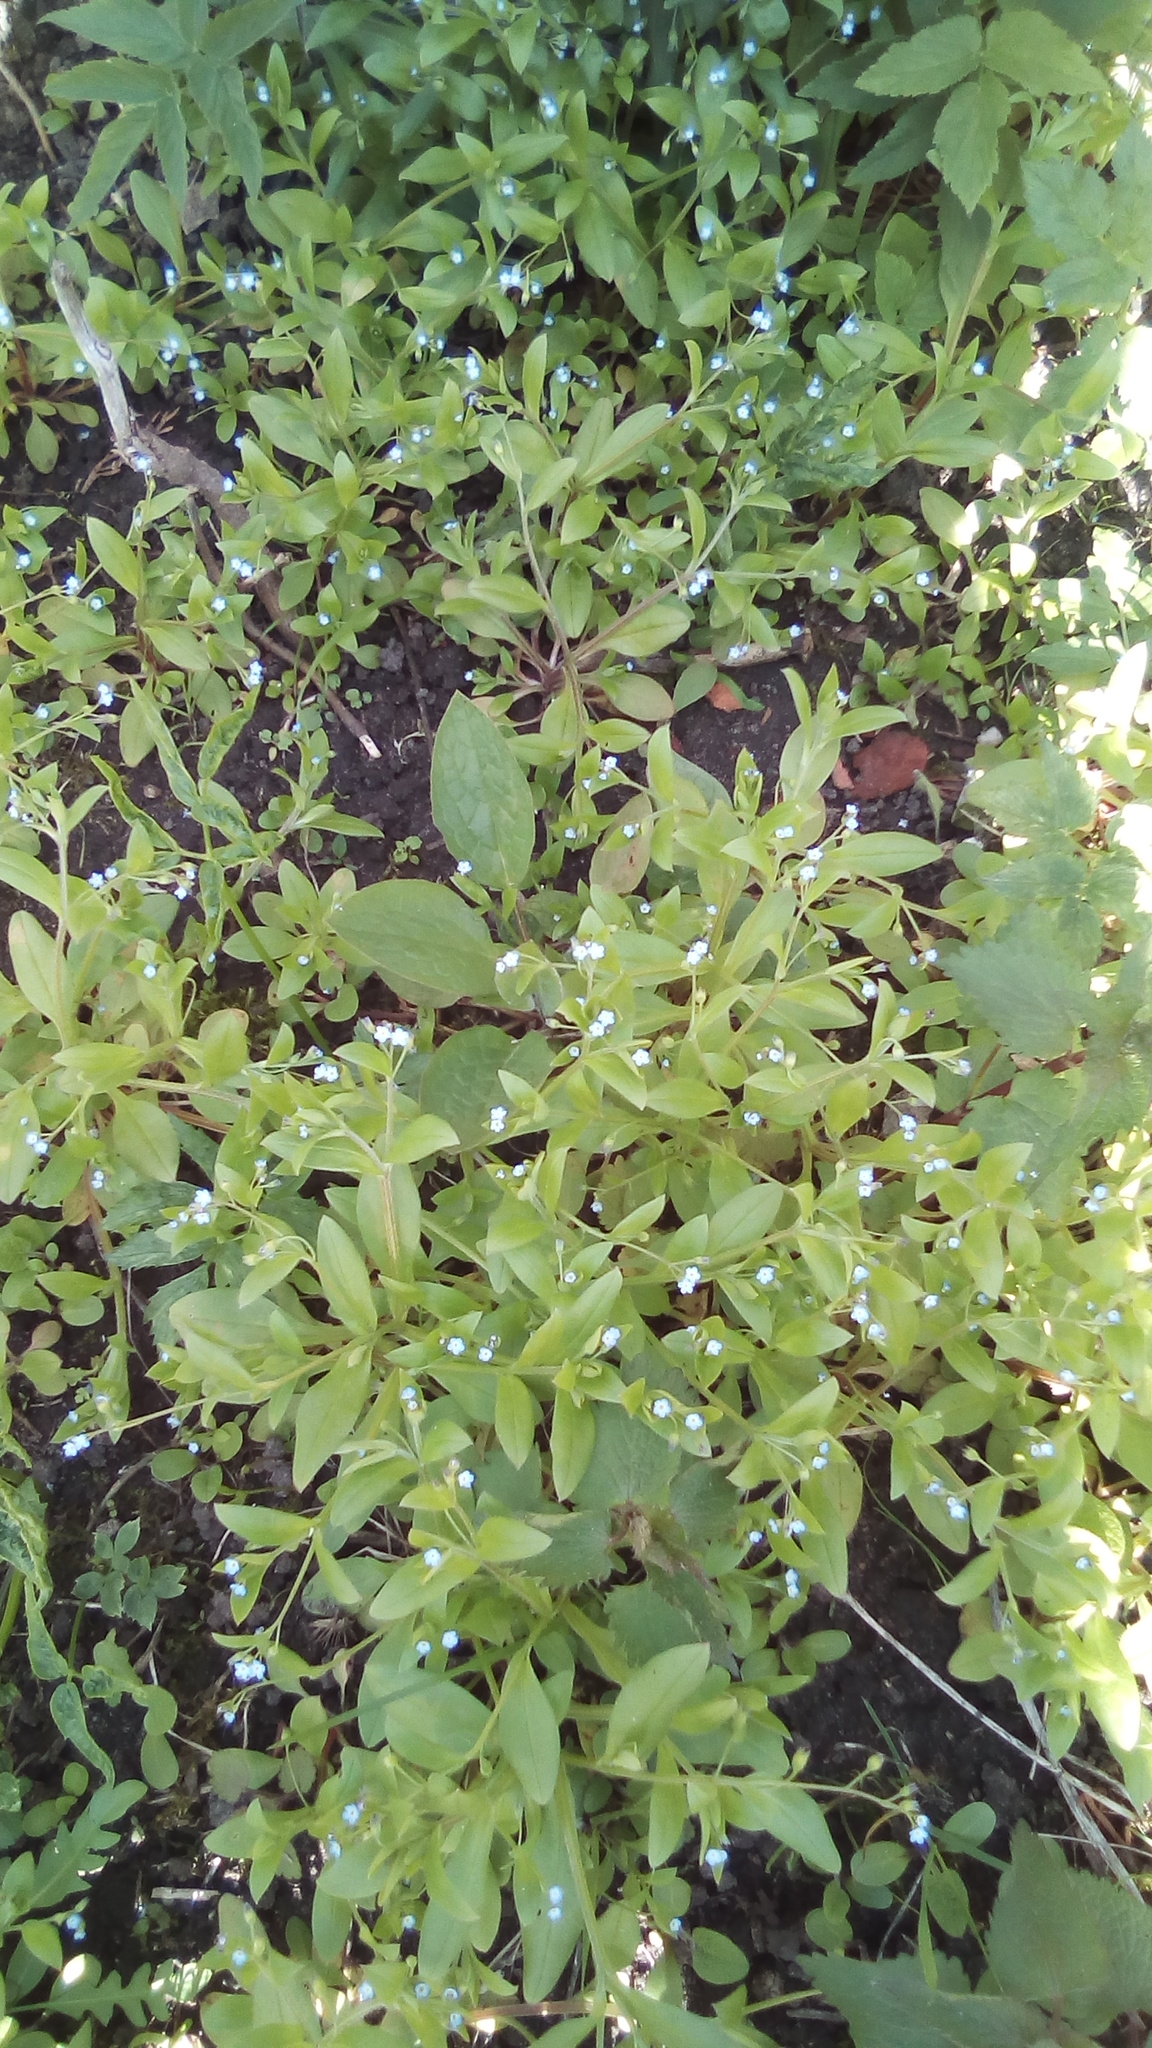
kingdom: Plantae
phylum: Tracheophyta
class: Magnoliopsida
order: Boraginales
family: Boraginaceae
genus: Myosotis
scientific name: Myosotis sparsiflora
